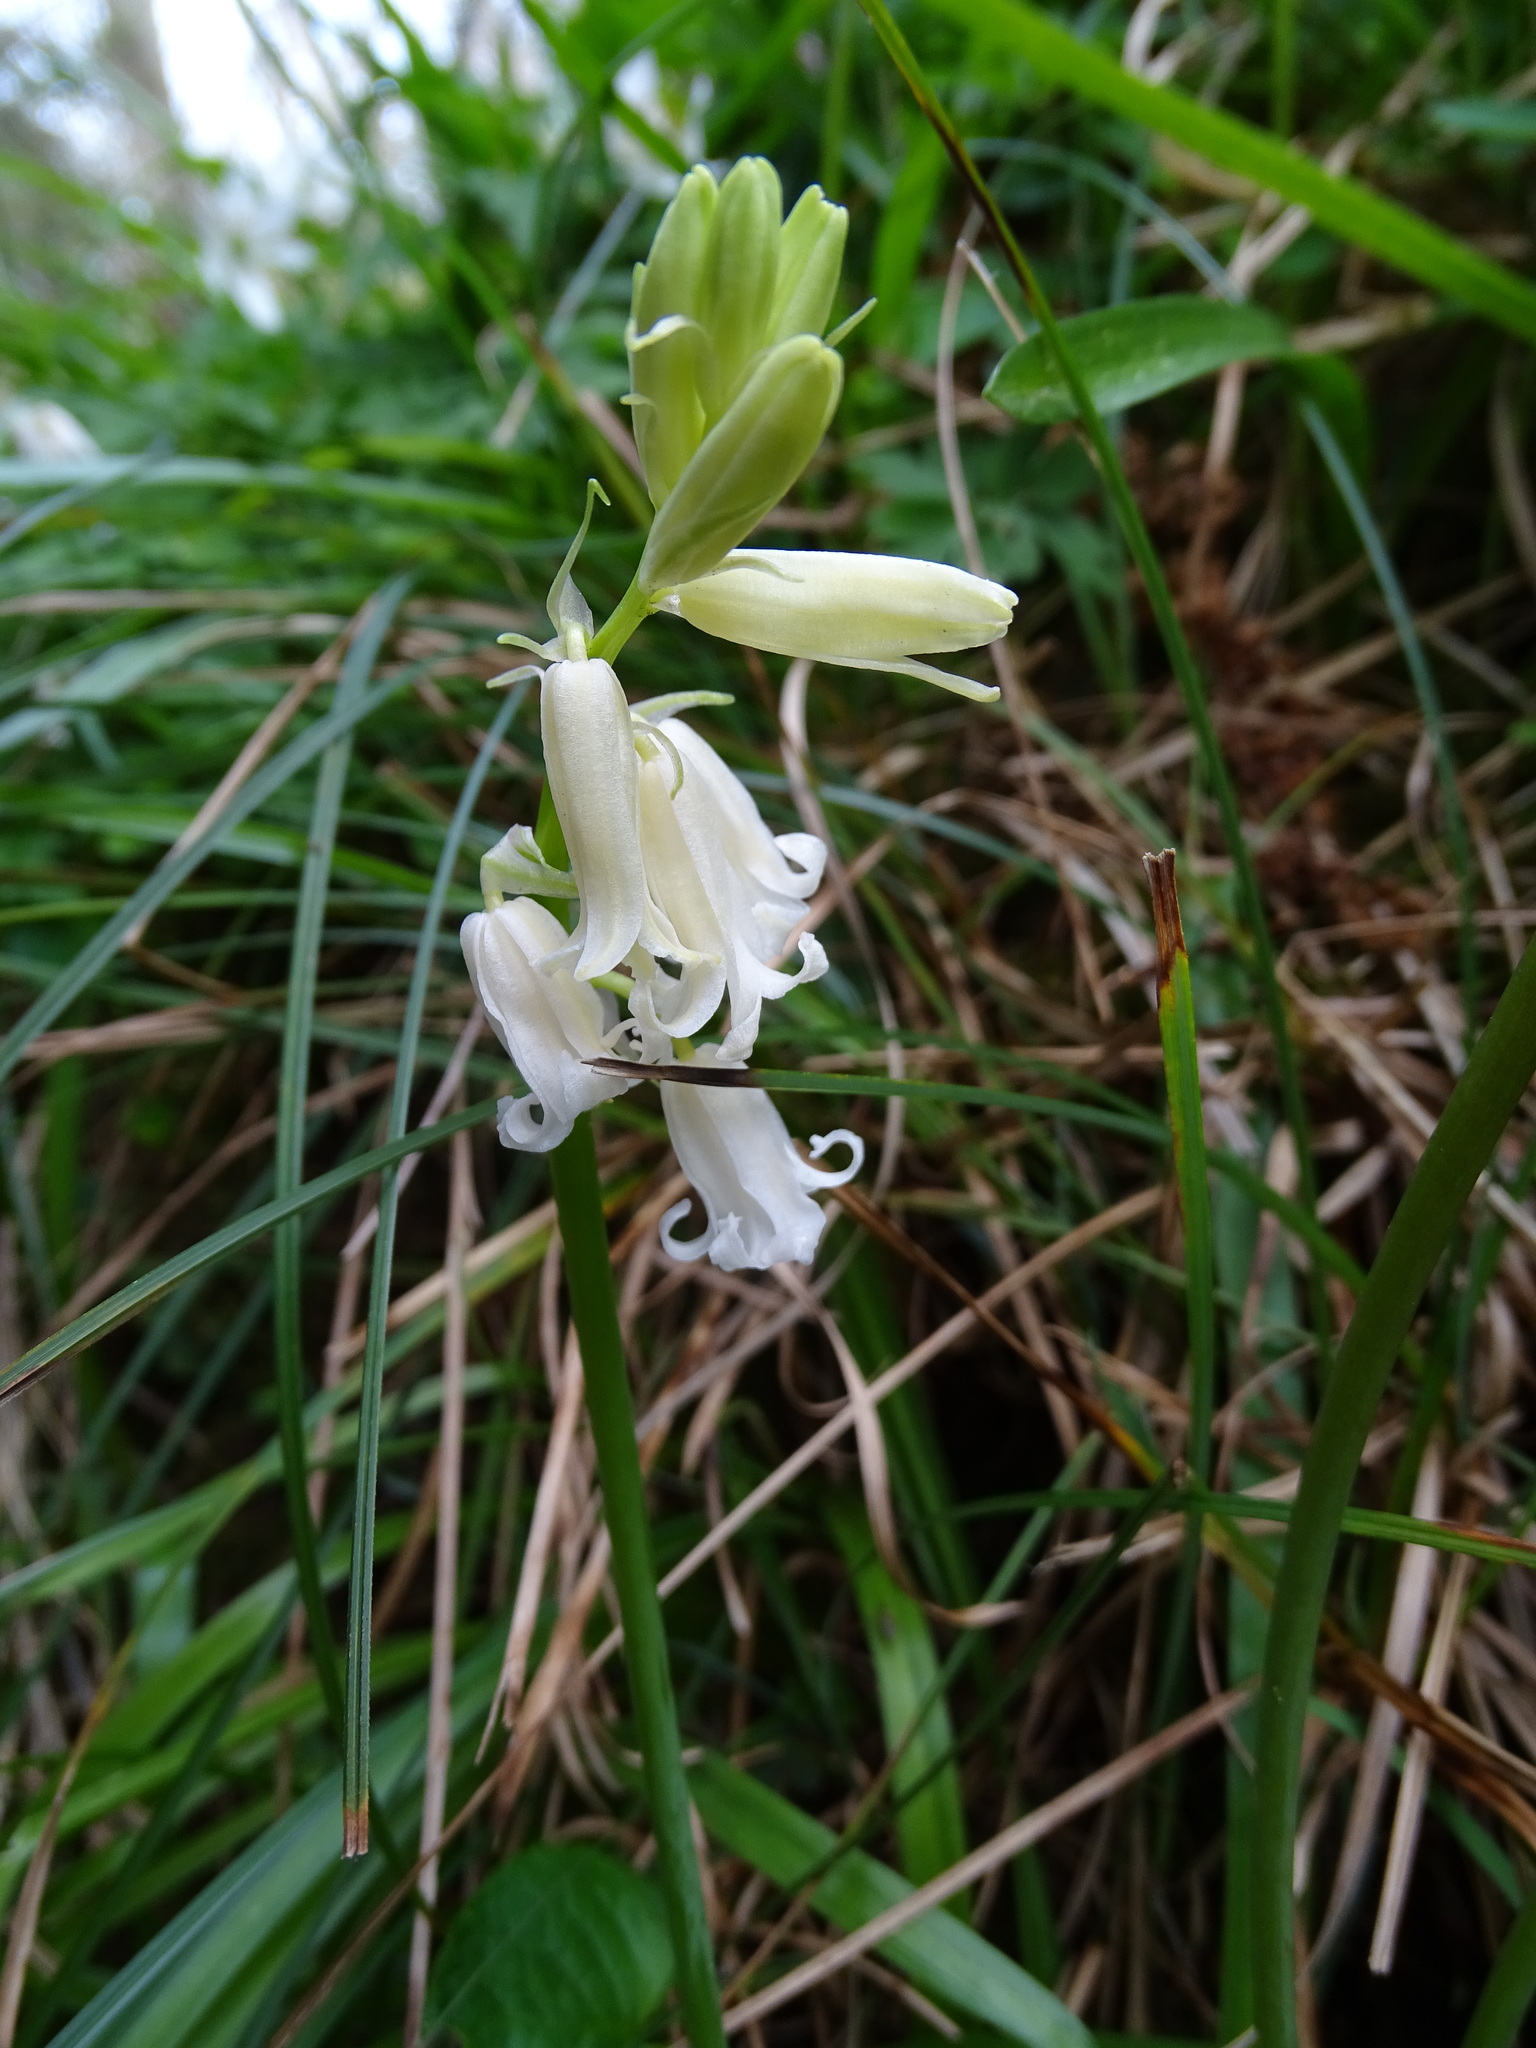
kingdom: Plantae
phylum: Tracheophyta
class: Liliopsida
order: Asparagales
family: Asparagaceae
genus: Hyacinthoides
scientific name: Hyacinthoides non-scripta
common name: Bluebell
